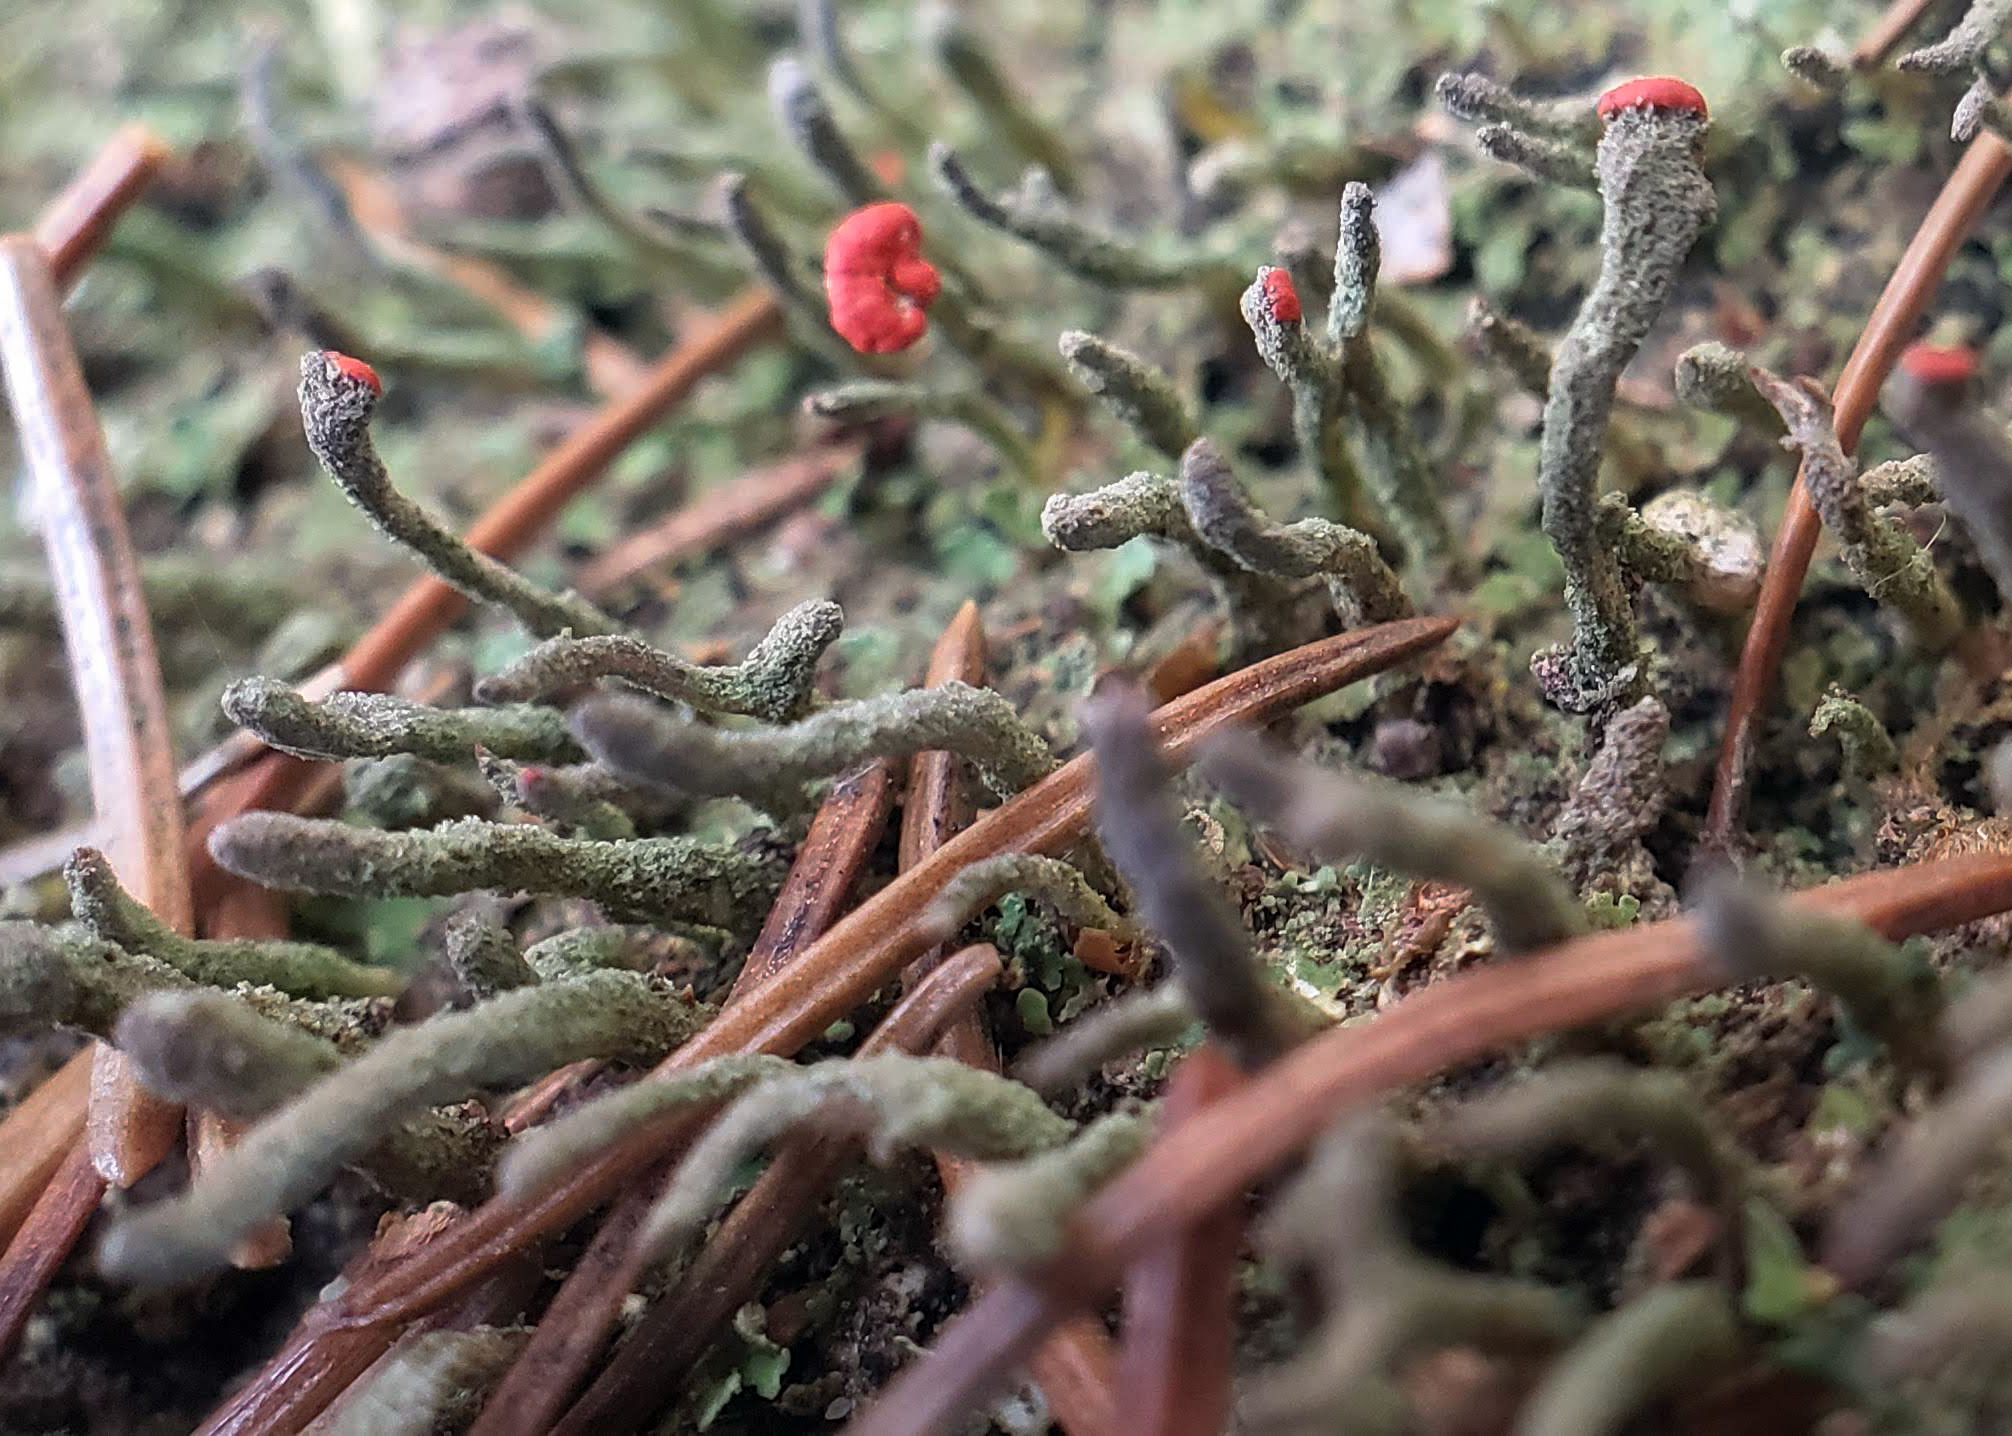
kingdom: Fungi
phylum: Ascomycota
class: Lecanoromycetes
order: Lecanorales
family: Cladoniaceae
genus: Cladonia
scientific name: Cladonia macilenta
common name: Lipstick powderhorn
